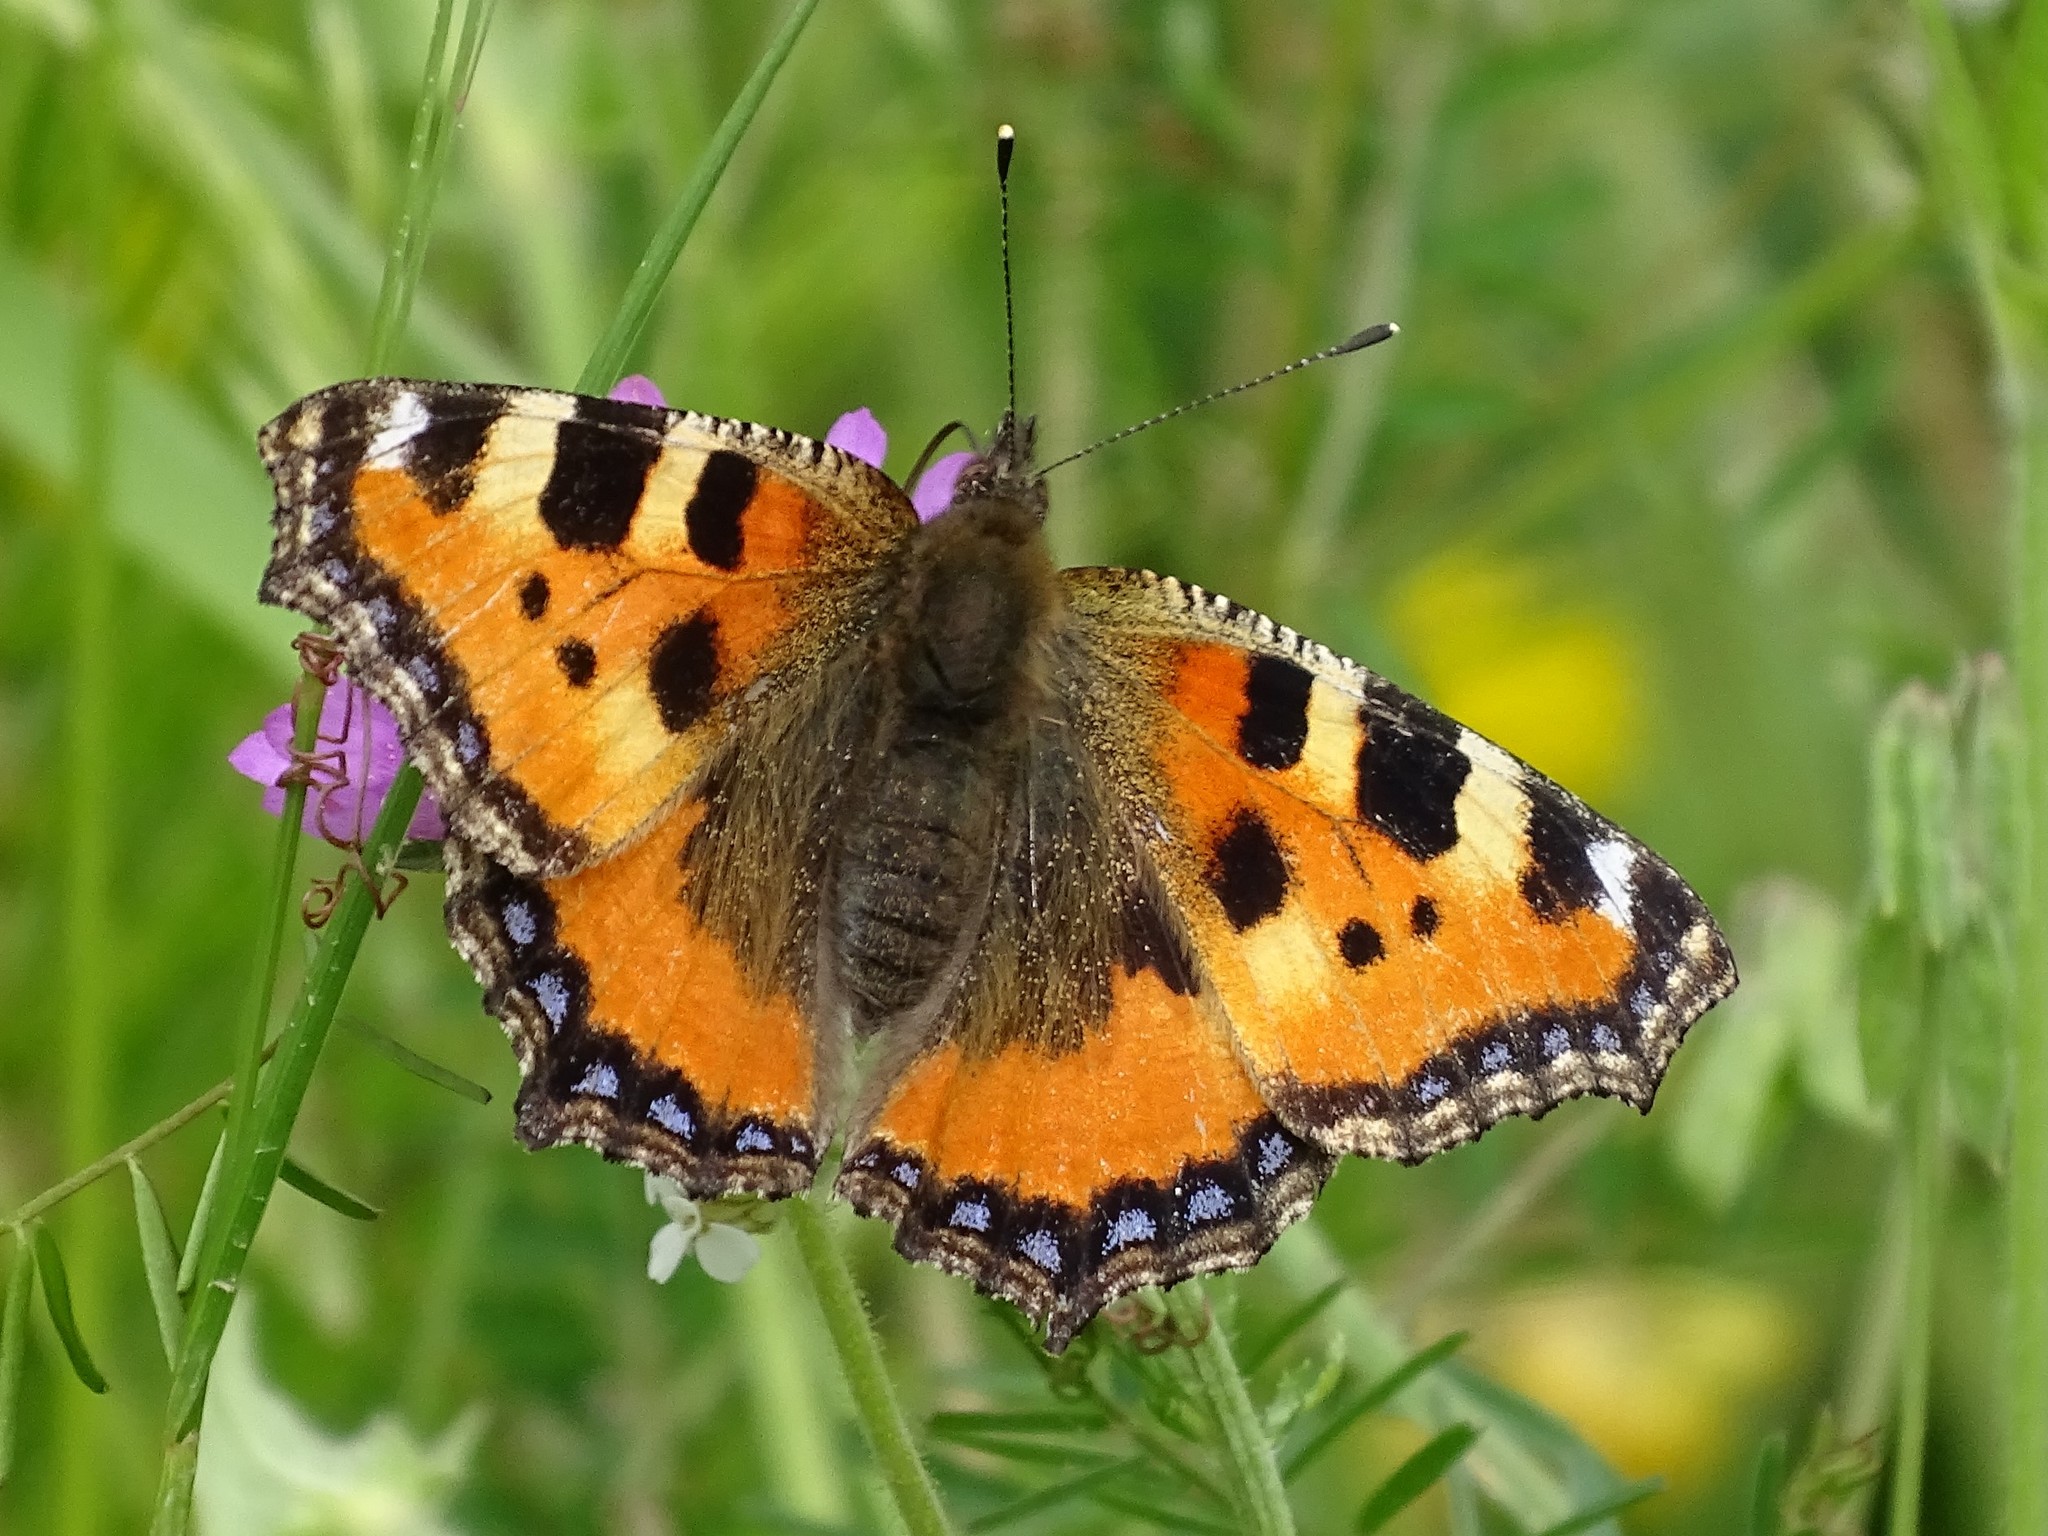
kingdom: Animalia
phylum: Arthropoda
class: Insecta
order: Lepidoptera
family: Nymphalidae
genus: Aglais
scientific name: Aglais urticae
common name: Small tortoiseshell
